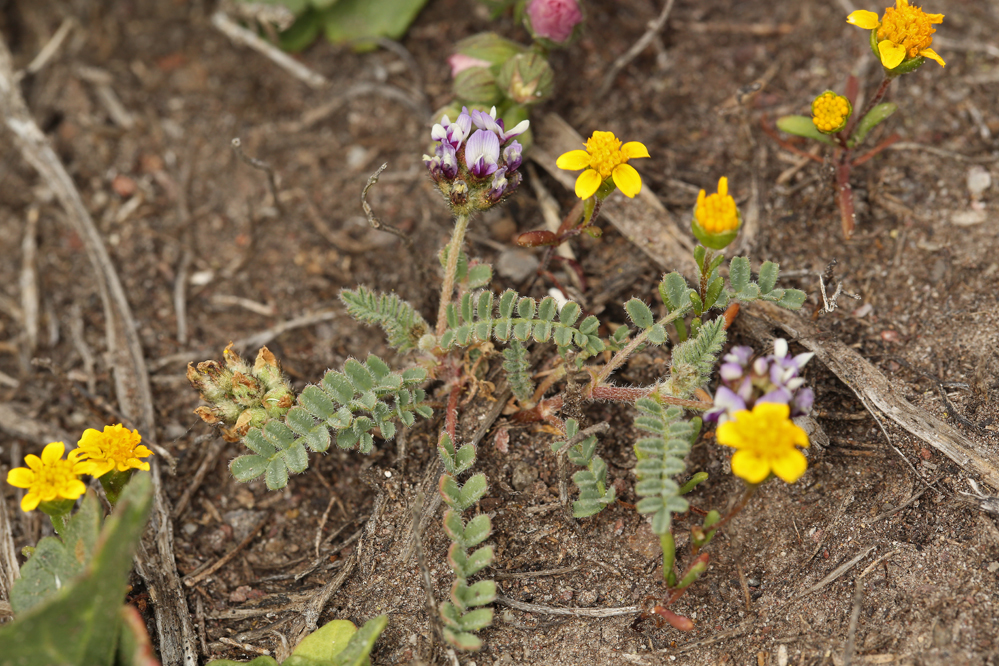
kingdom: Plantae
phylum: Tracheophyta
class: Magnoliopsida
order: Fabales
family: Fabaceae
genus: Astragalus
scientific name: Astragalus didymocarpus
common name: Dwarf white milkvetch
